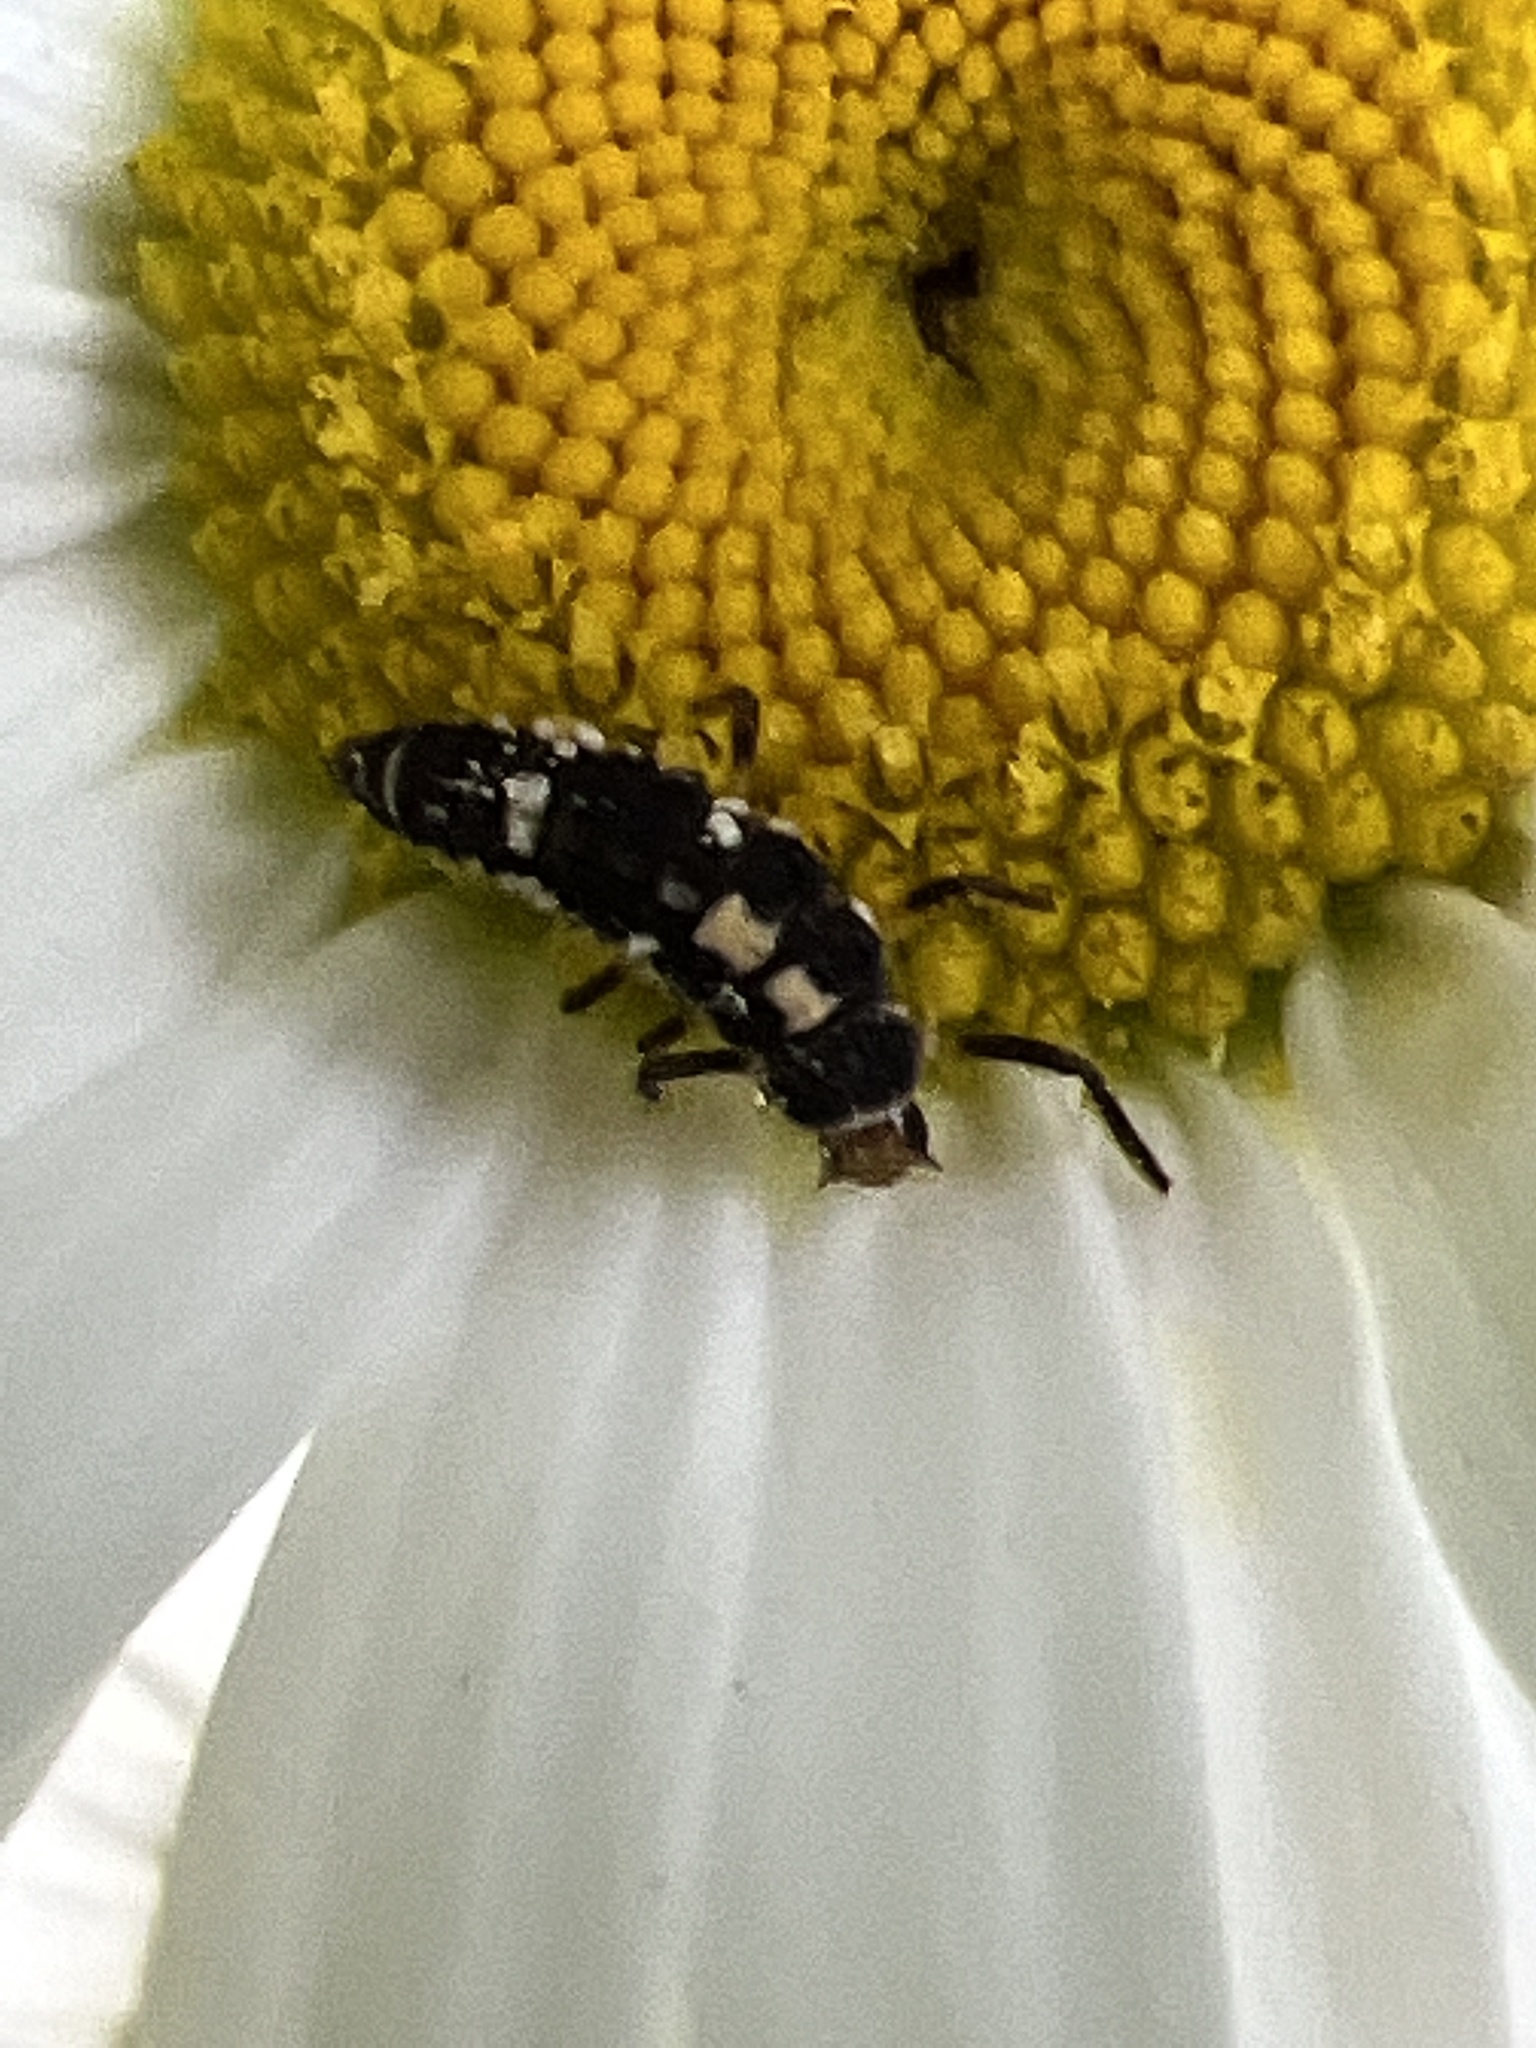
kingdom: Animalia
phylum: Arthropoda
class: Insecta
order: Coleoptera
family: Coccinellidae
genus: Propylaea
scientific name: Propylaea quatuordecimpunctata
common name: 14-spotted ladybird beetle
